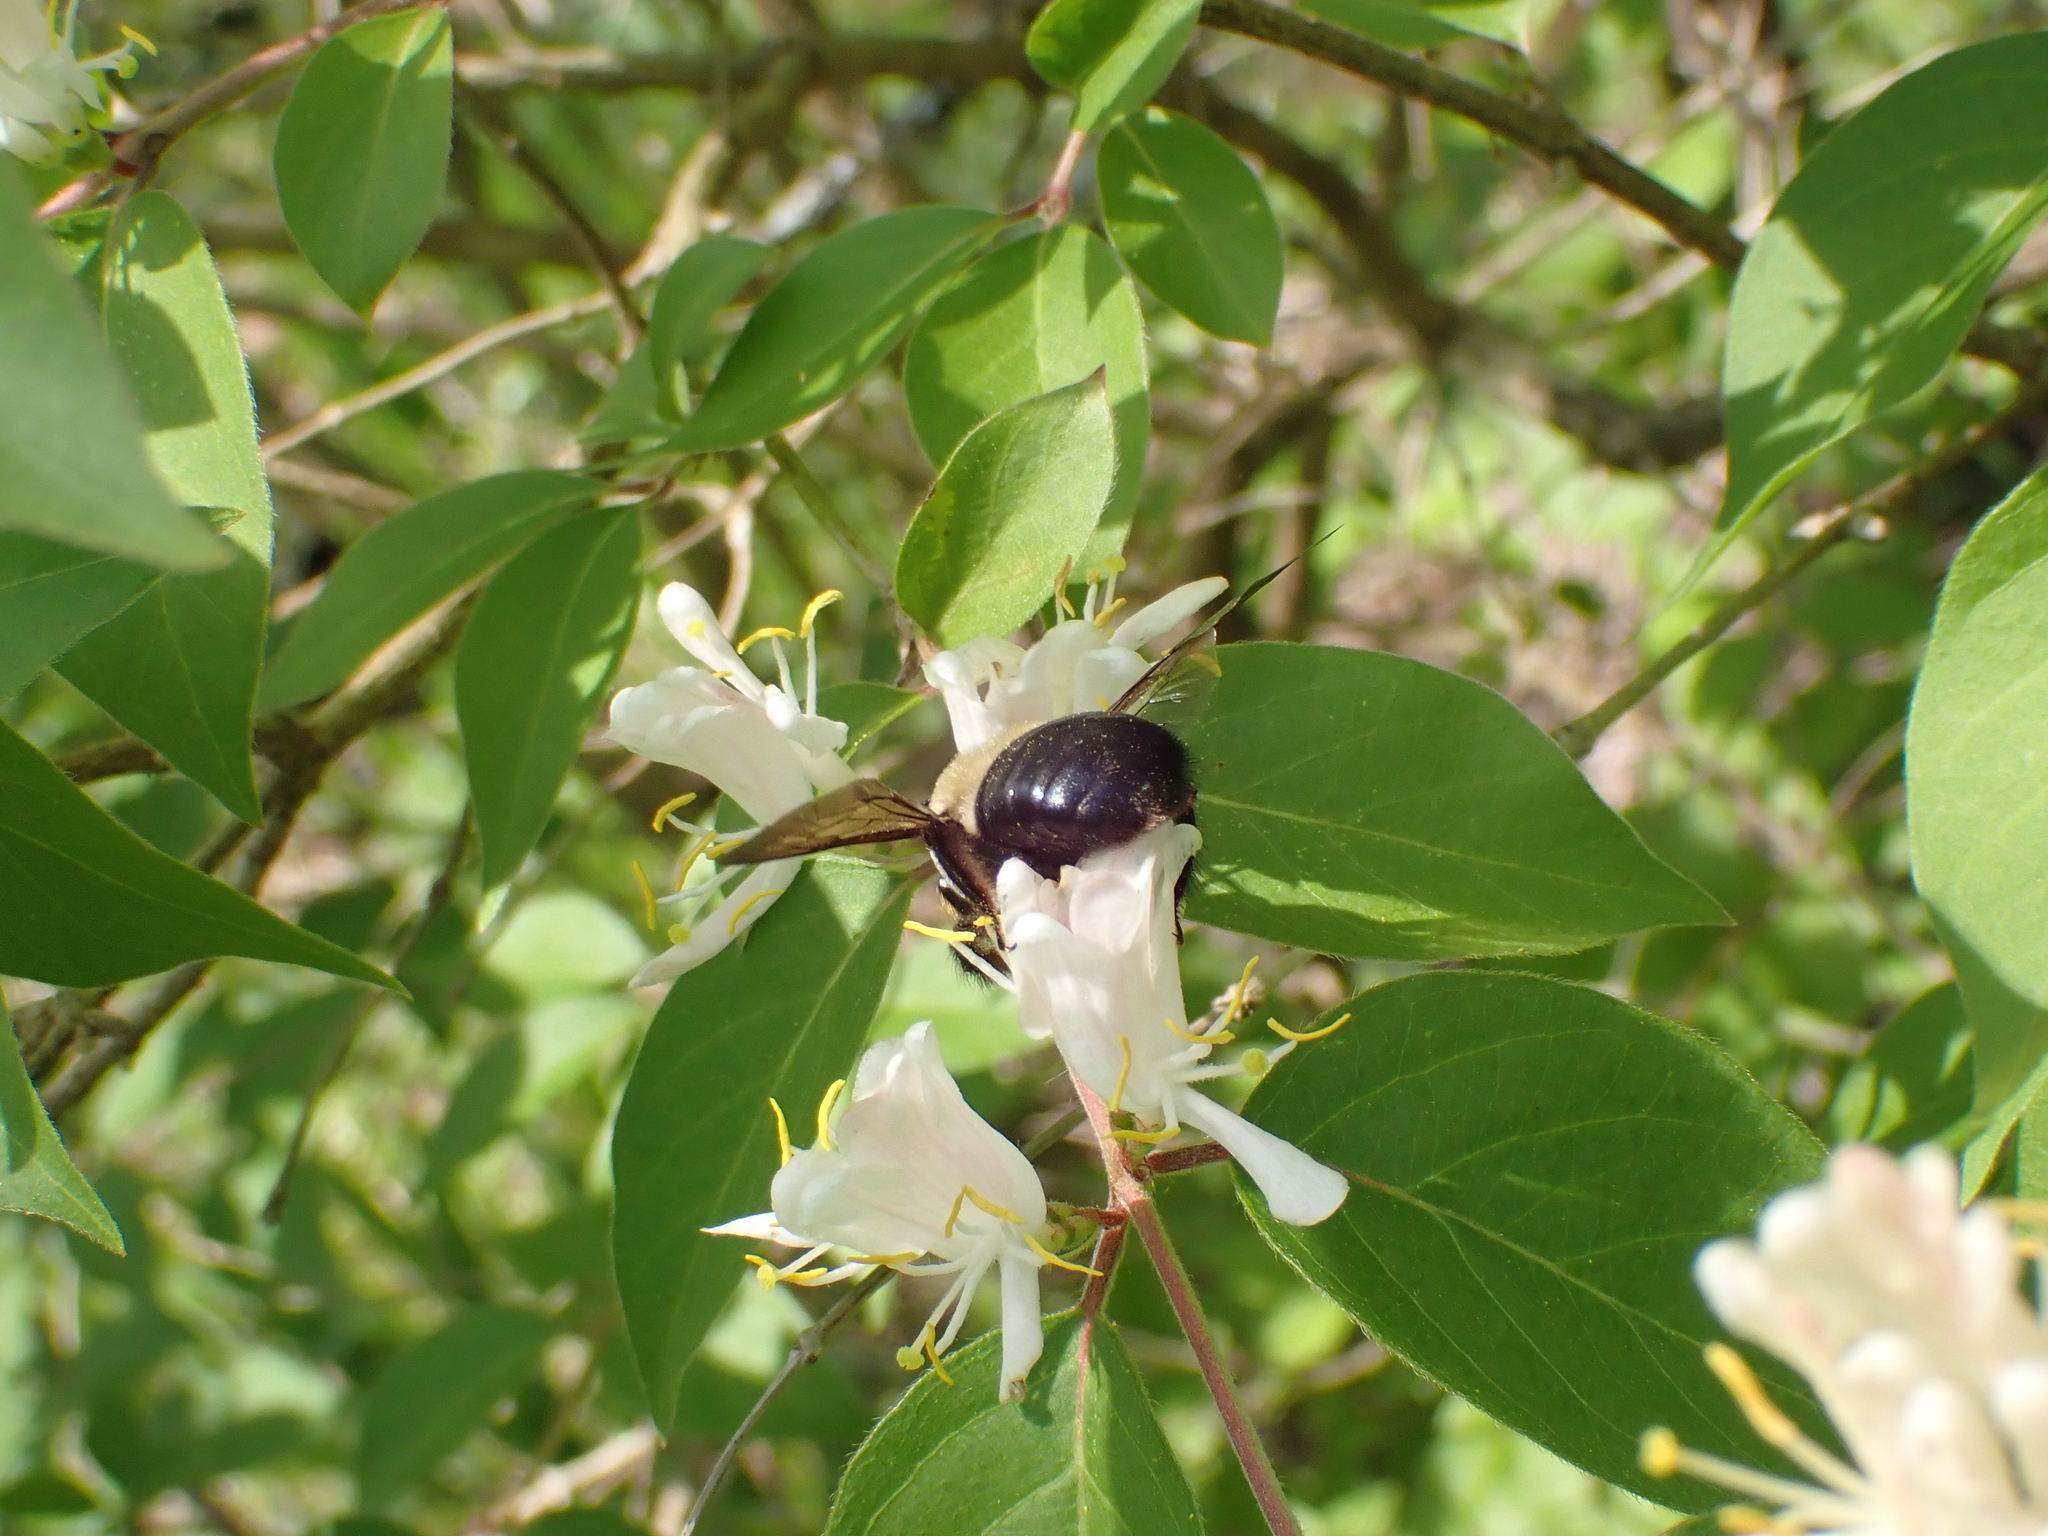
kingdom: Animalia
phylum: Arthropoda
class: Insecta
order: Hymenoptera
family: Apidae
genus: Xylocopa
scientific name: Xylocopa virginica
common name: Carpenter bee
